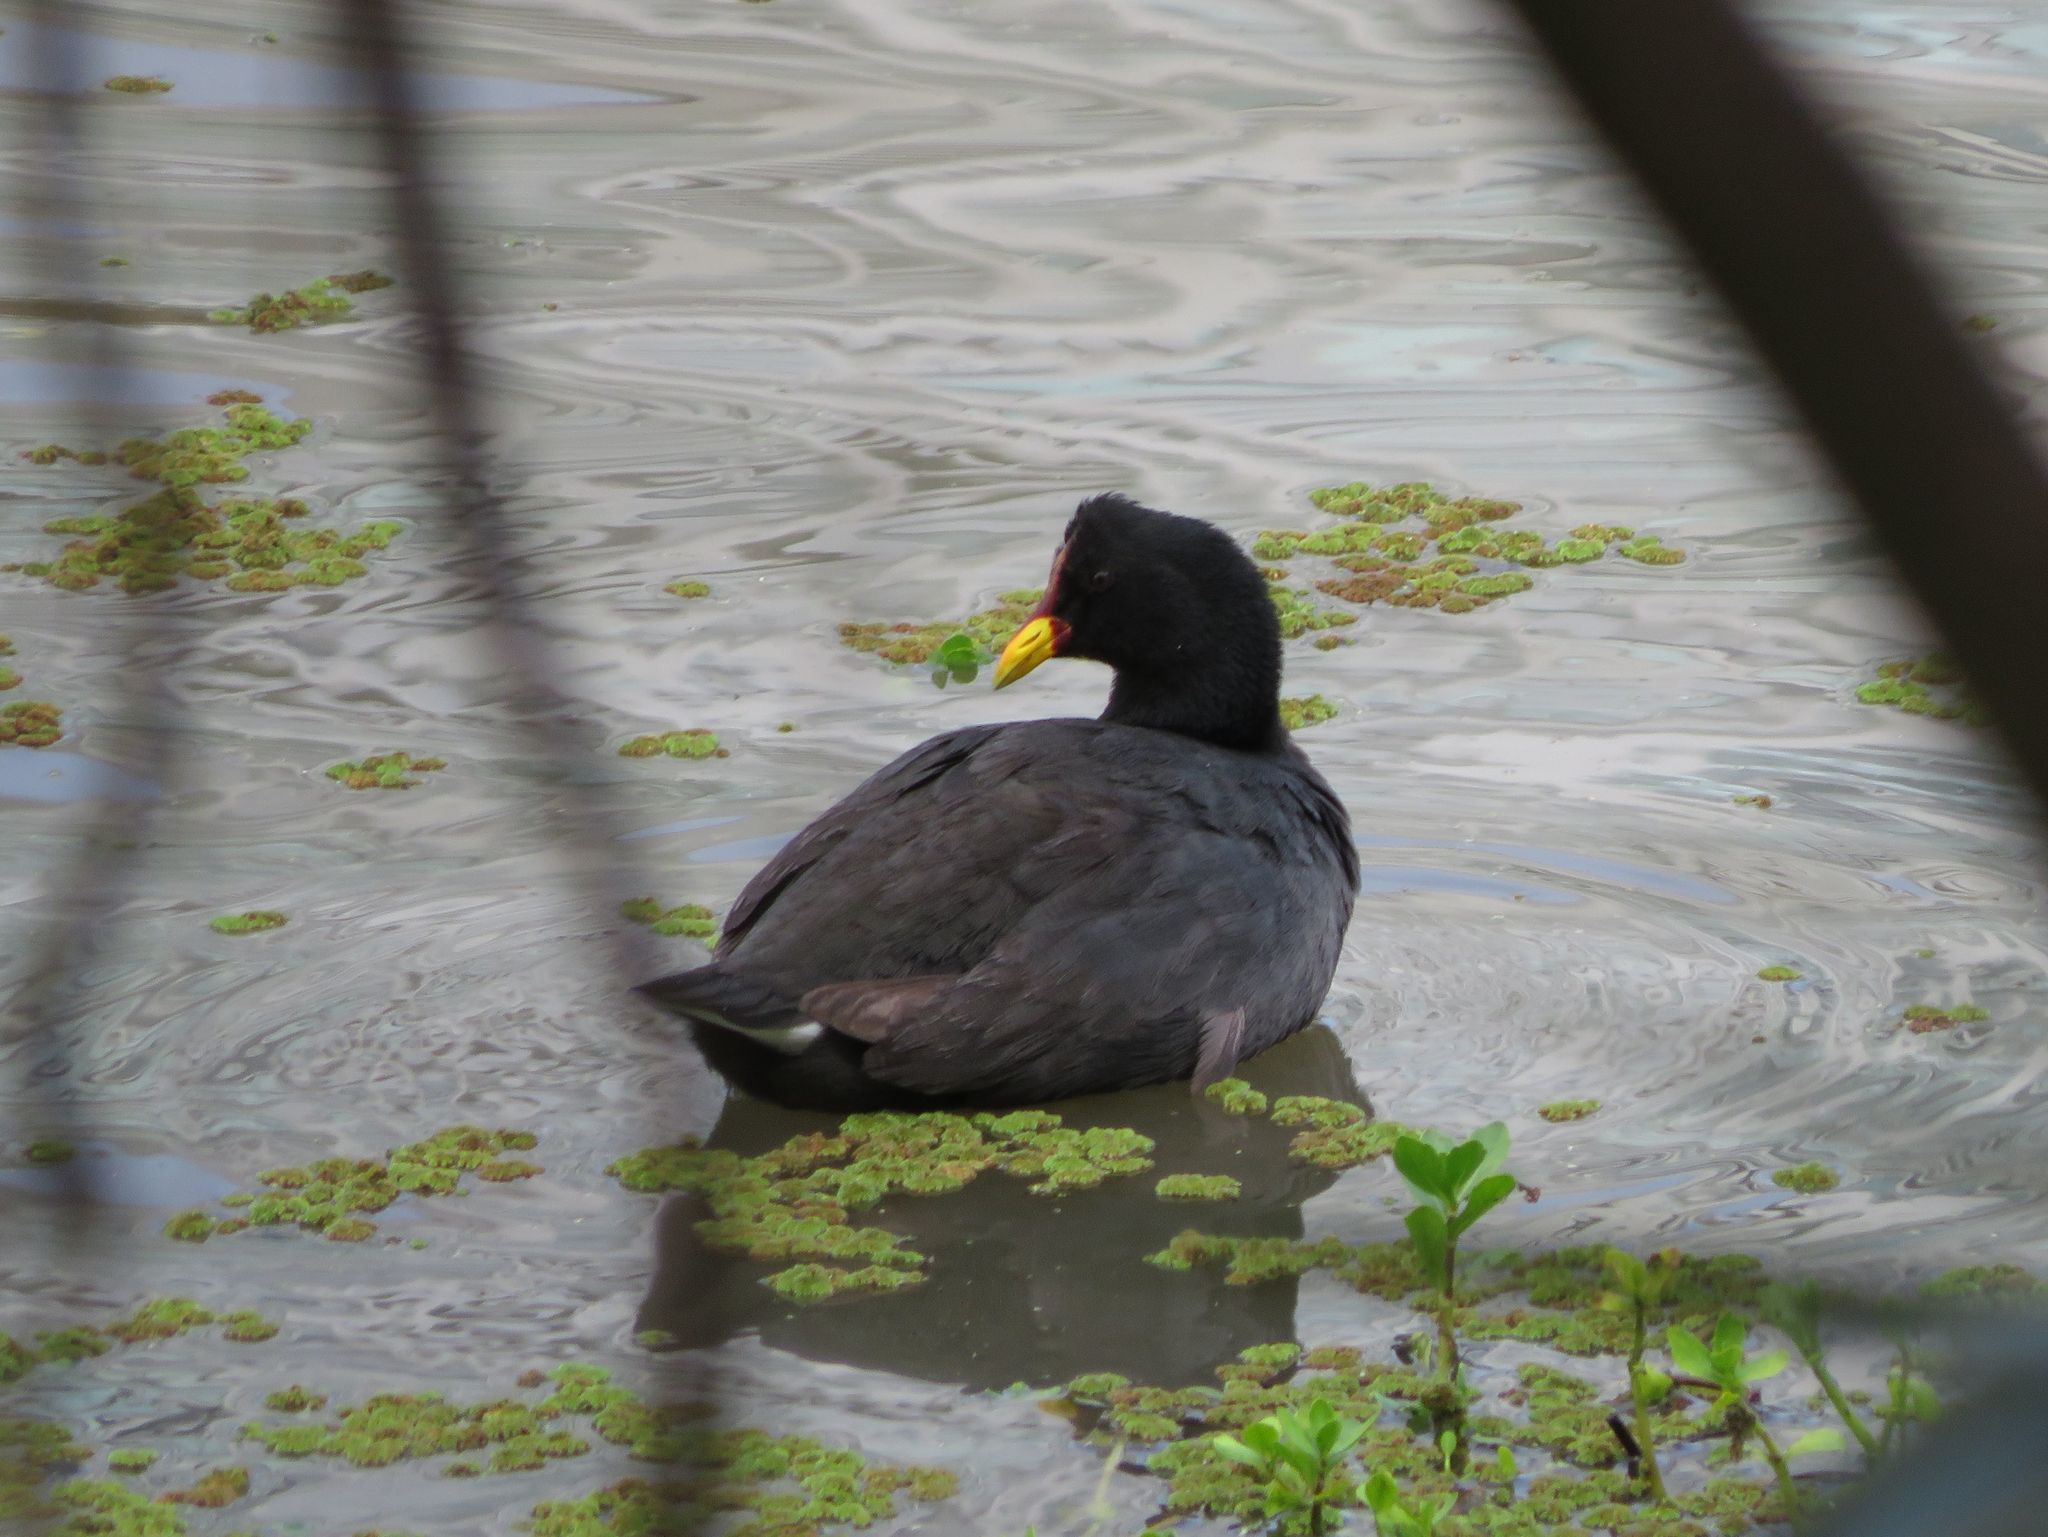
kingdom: Animalia
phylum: Chordata
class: Aves
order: Gruiformes
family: Rallidae
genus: Fulica
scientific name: Fulica rufifrons
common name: Red-fronted coot
